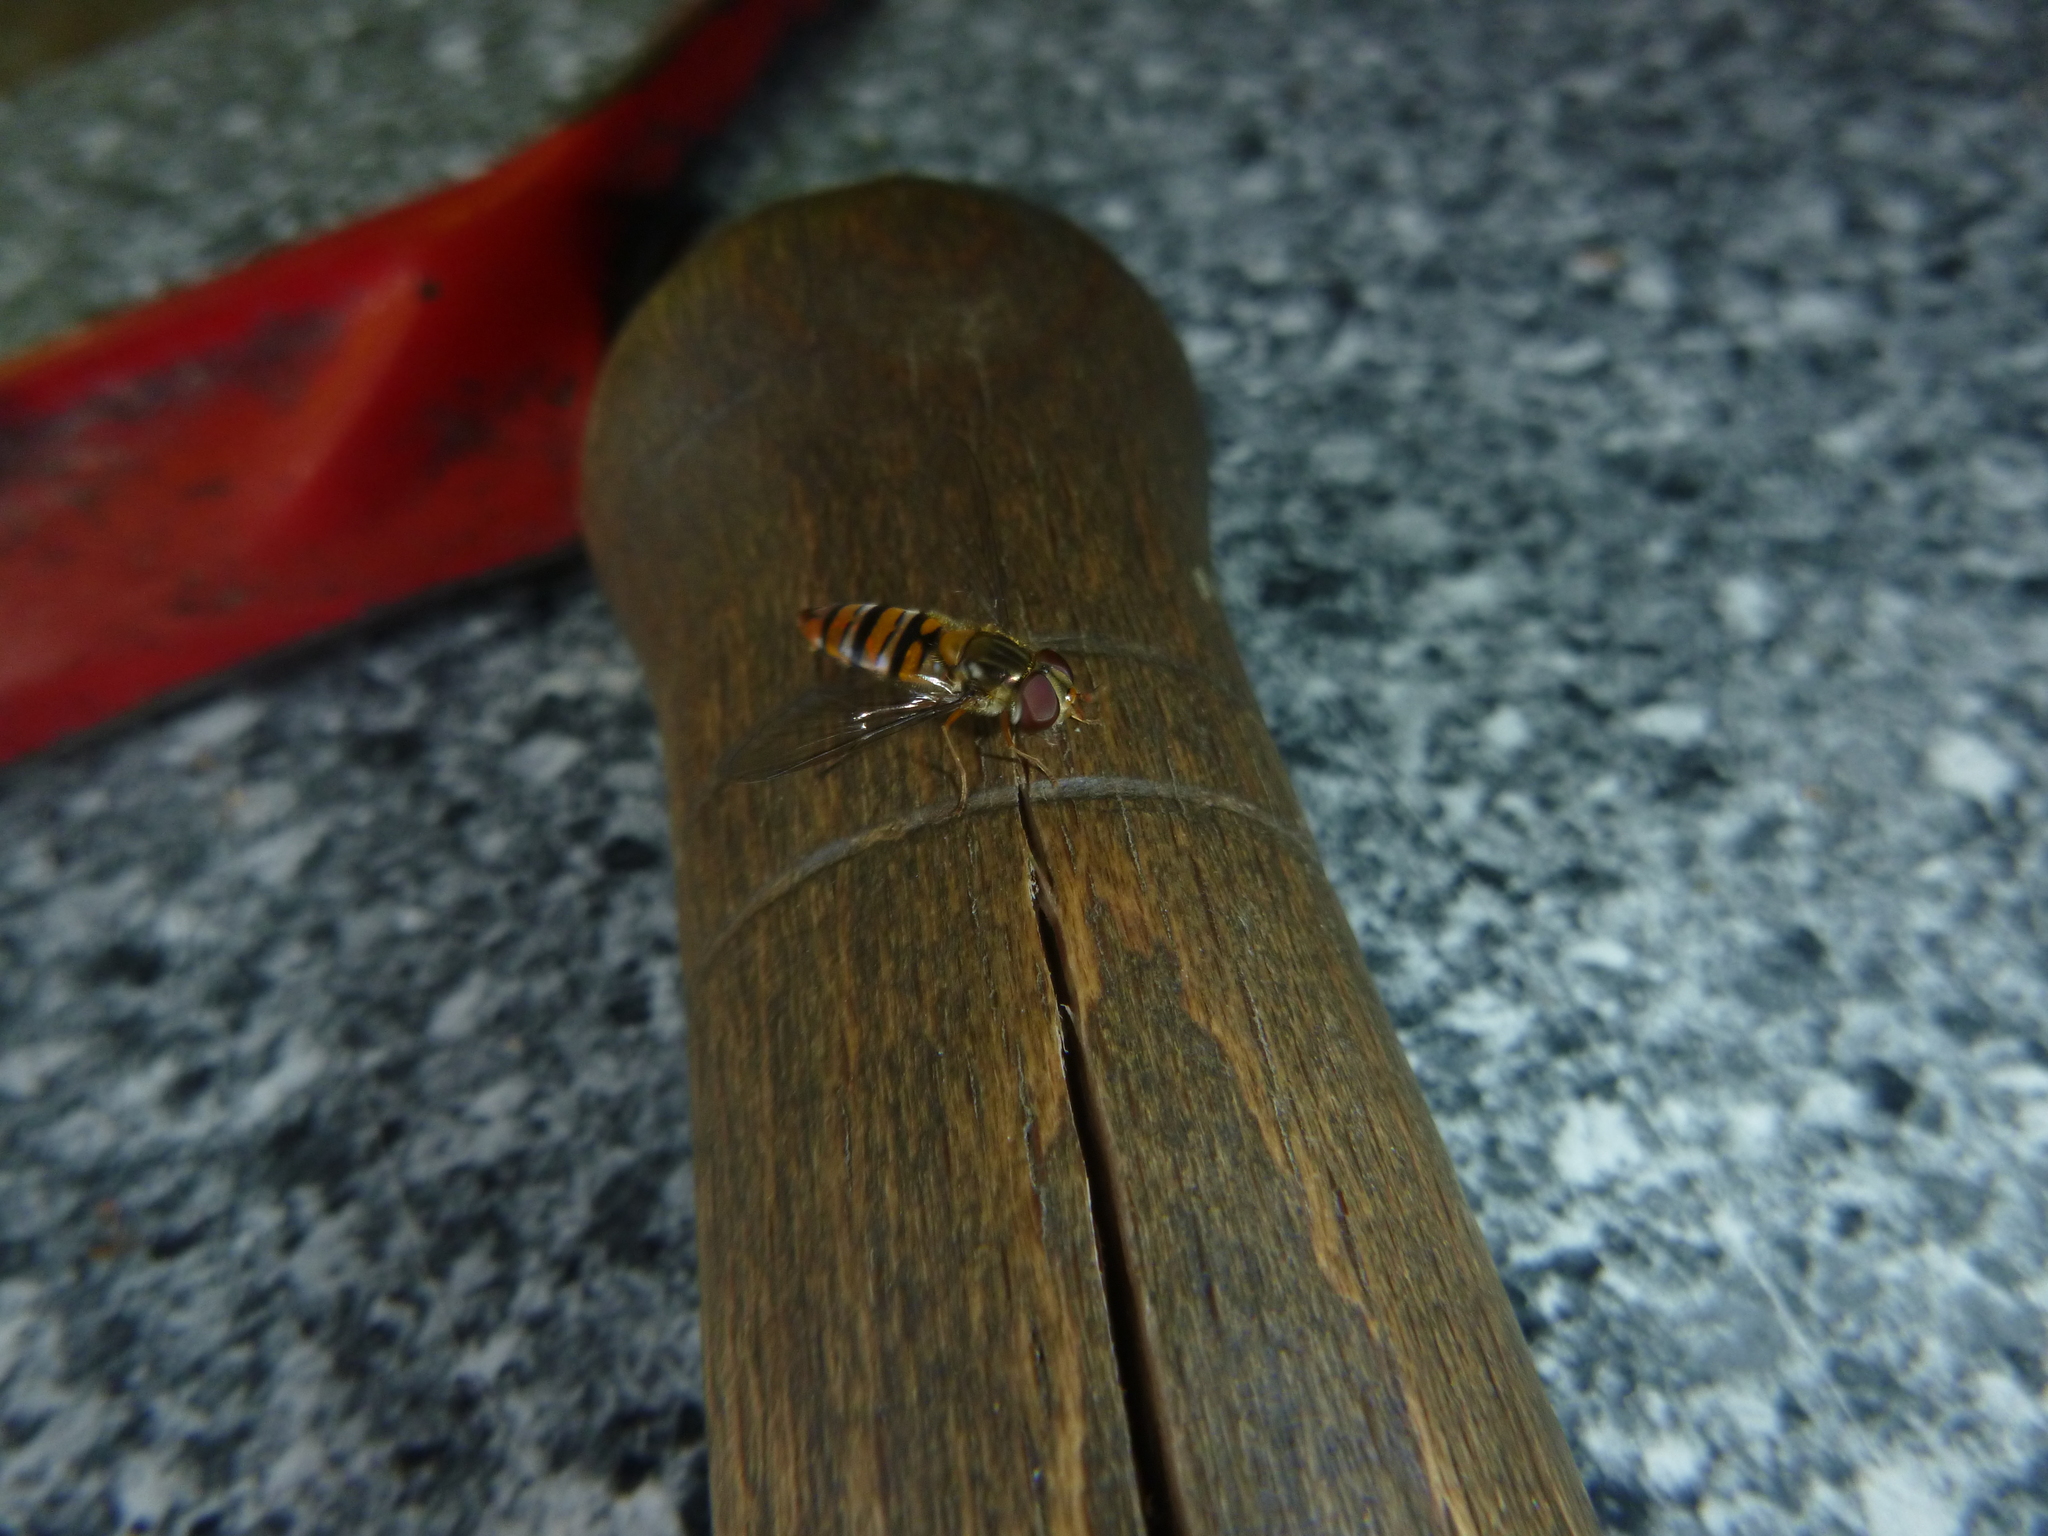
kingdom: Animalia
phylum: Arthropoda
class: Insecta
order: Diptera
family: Syrphidae
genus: Episyrphus
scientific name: Episyrphus balteatus
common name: Marmalade hoverfly
